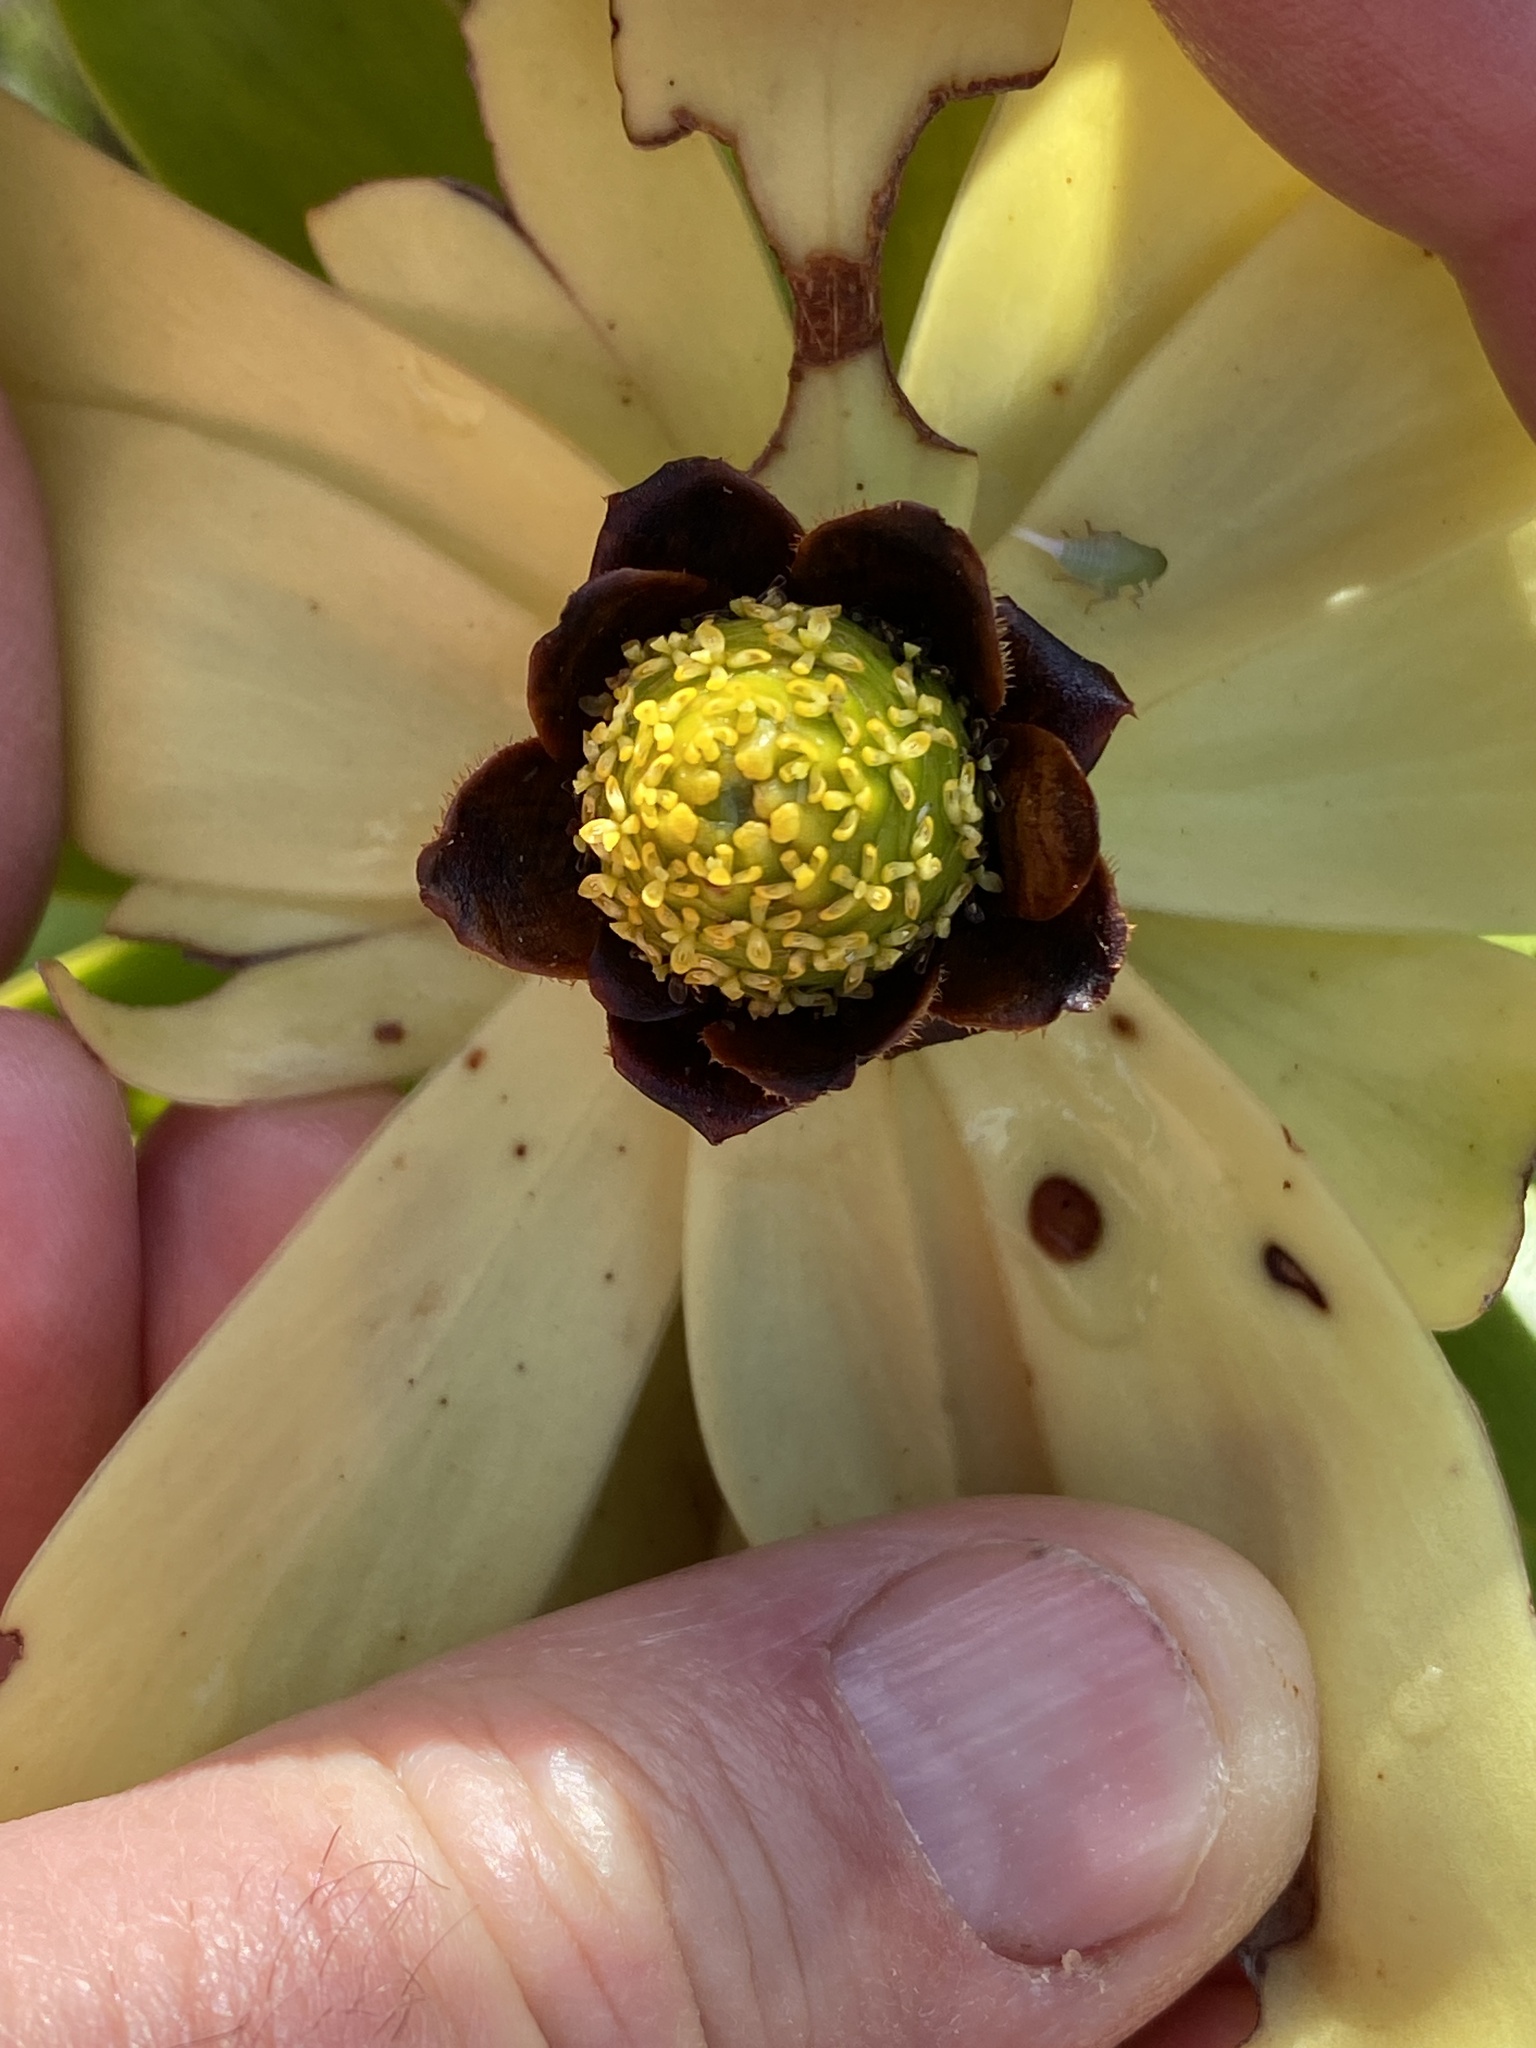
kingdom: Plantae
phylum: Tracheophyta
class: Magnoliopsida
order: Proteales
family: Proteaceae
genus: Leucadendron
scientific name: Leucadendron microcephalum
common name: Oilbract conebush
